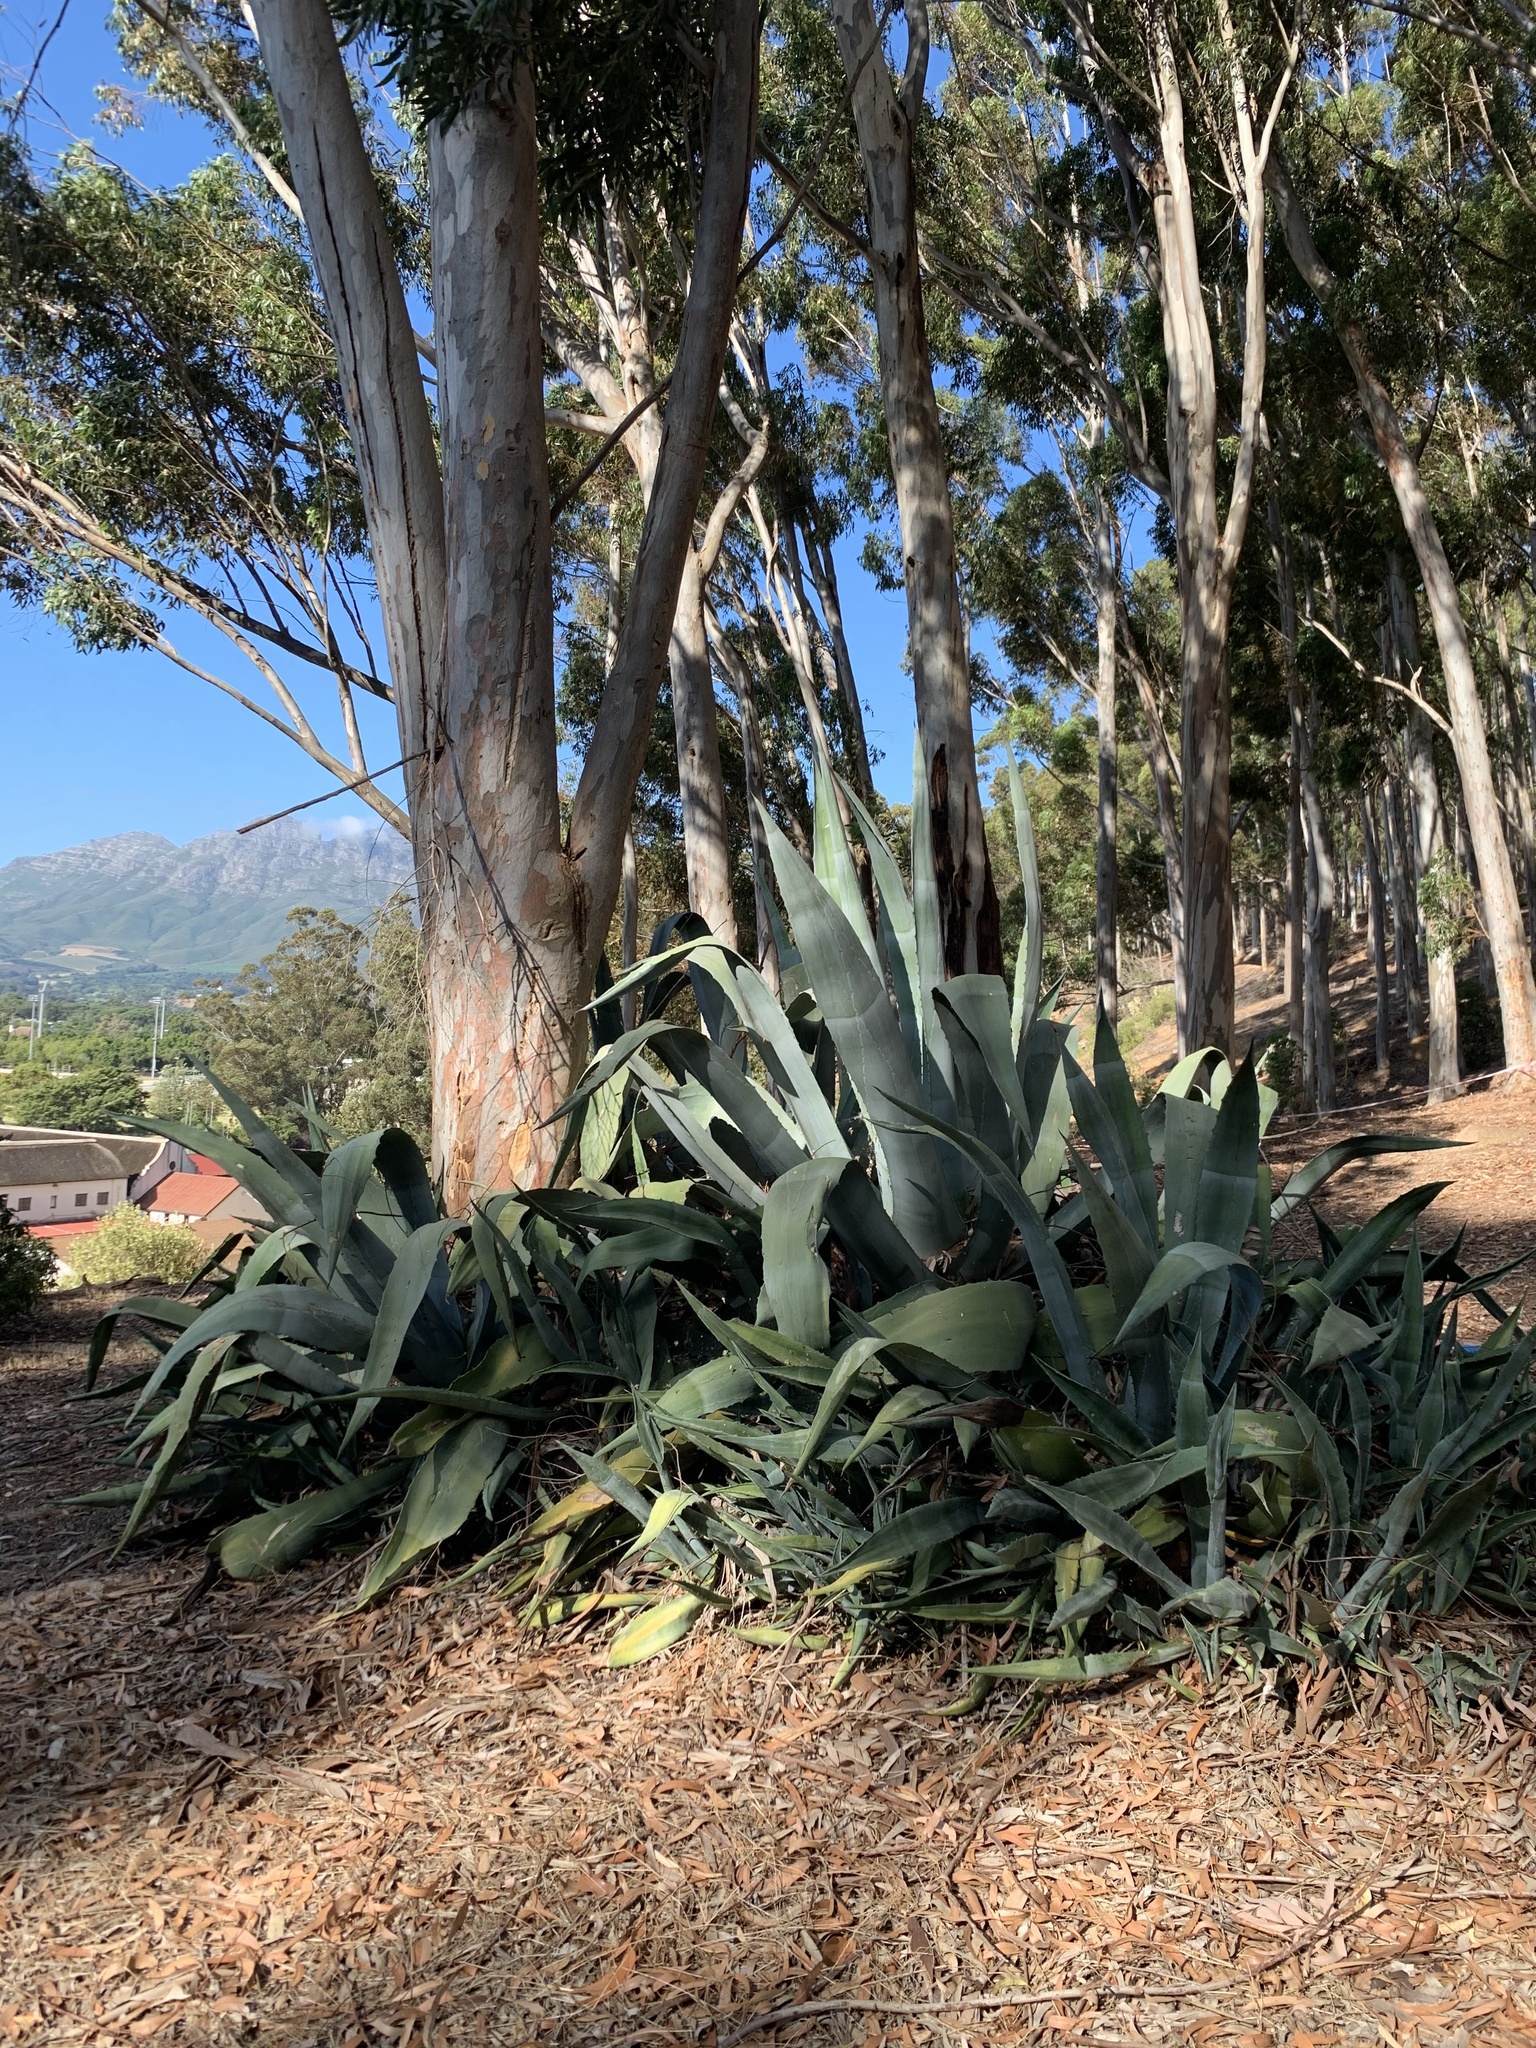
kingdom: Plantae
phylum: Tracheophyta
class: Liliopsida
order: Asparagales
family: Asparagaceae
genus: Agave
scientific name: Agave americana
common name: Centuryplant
